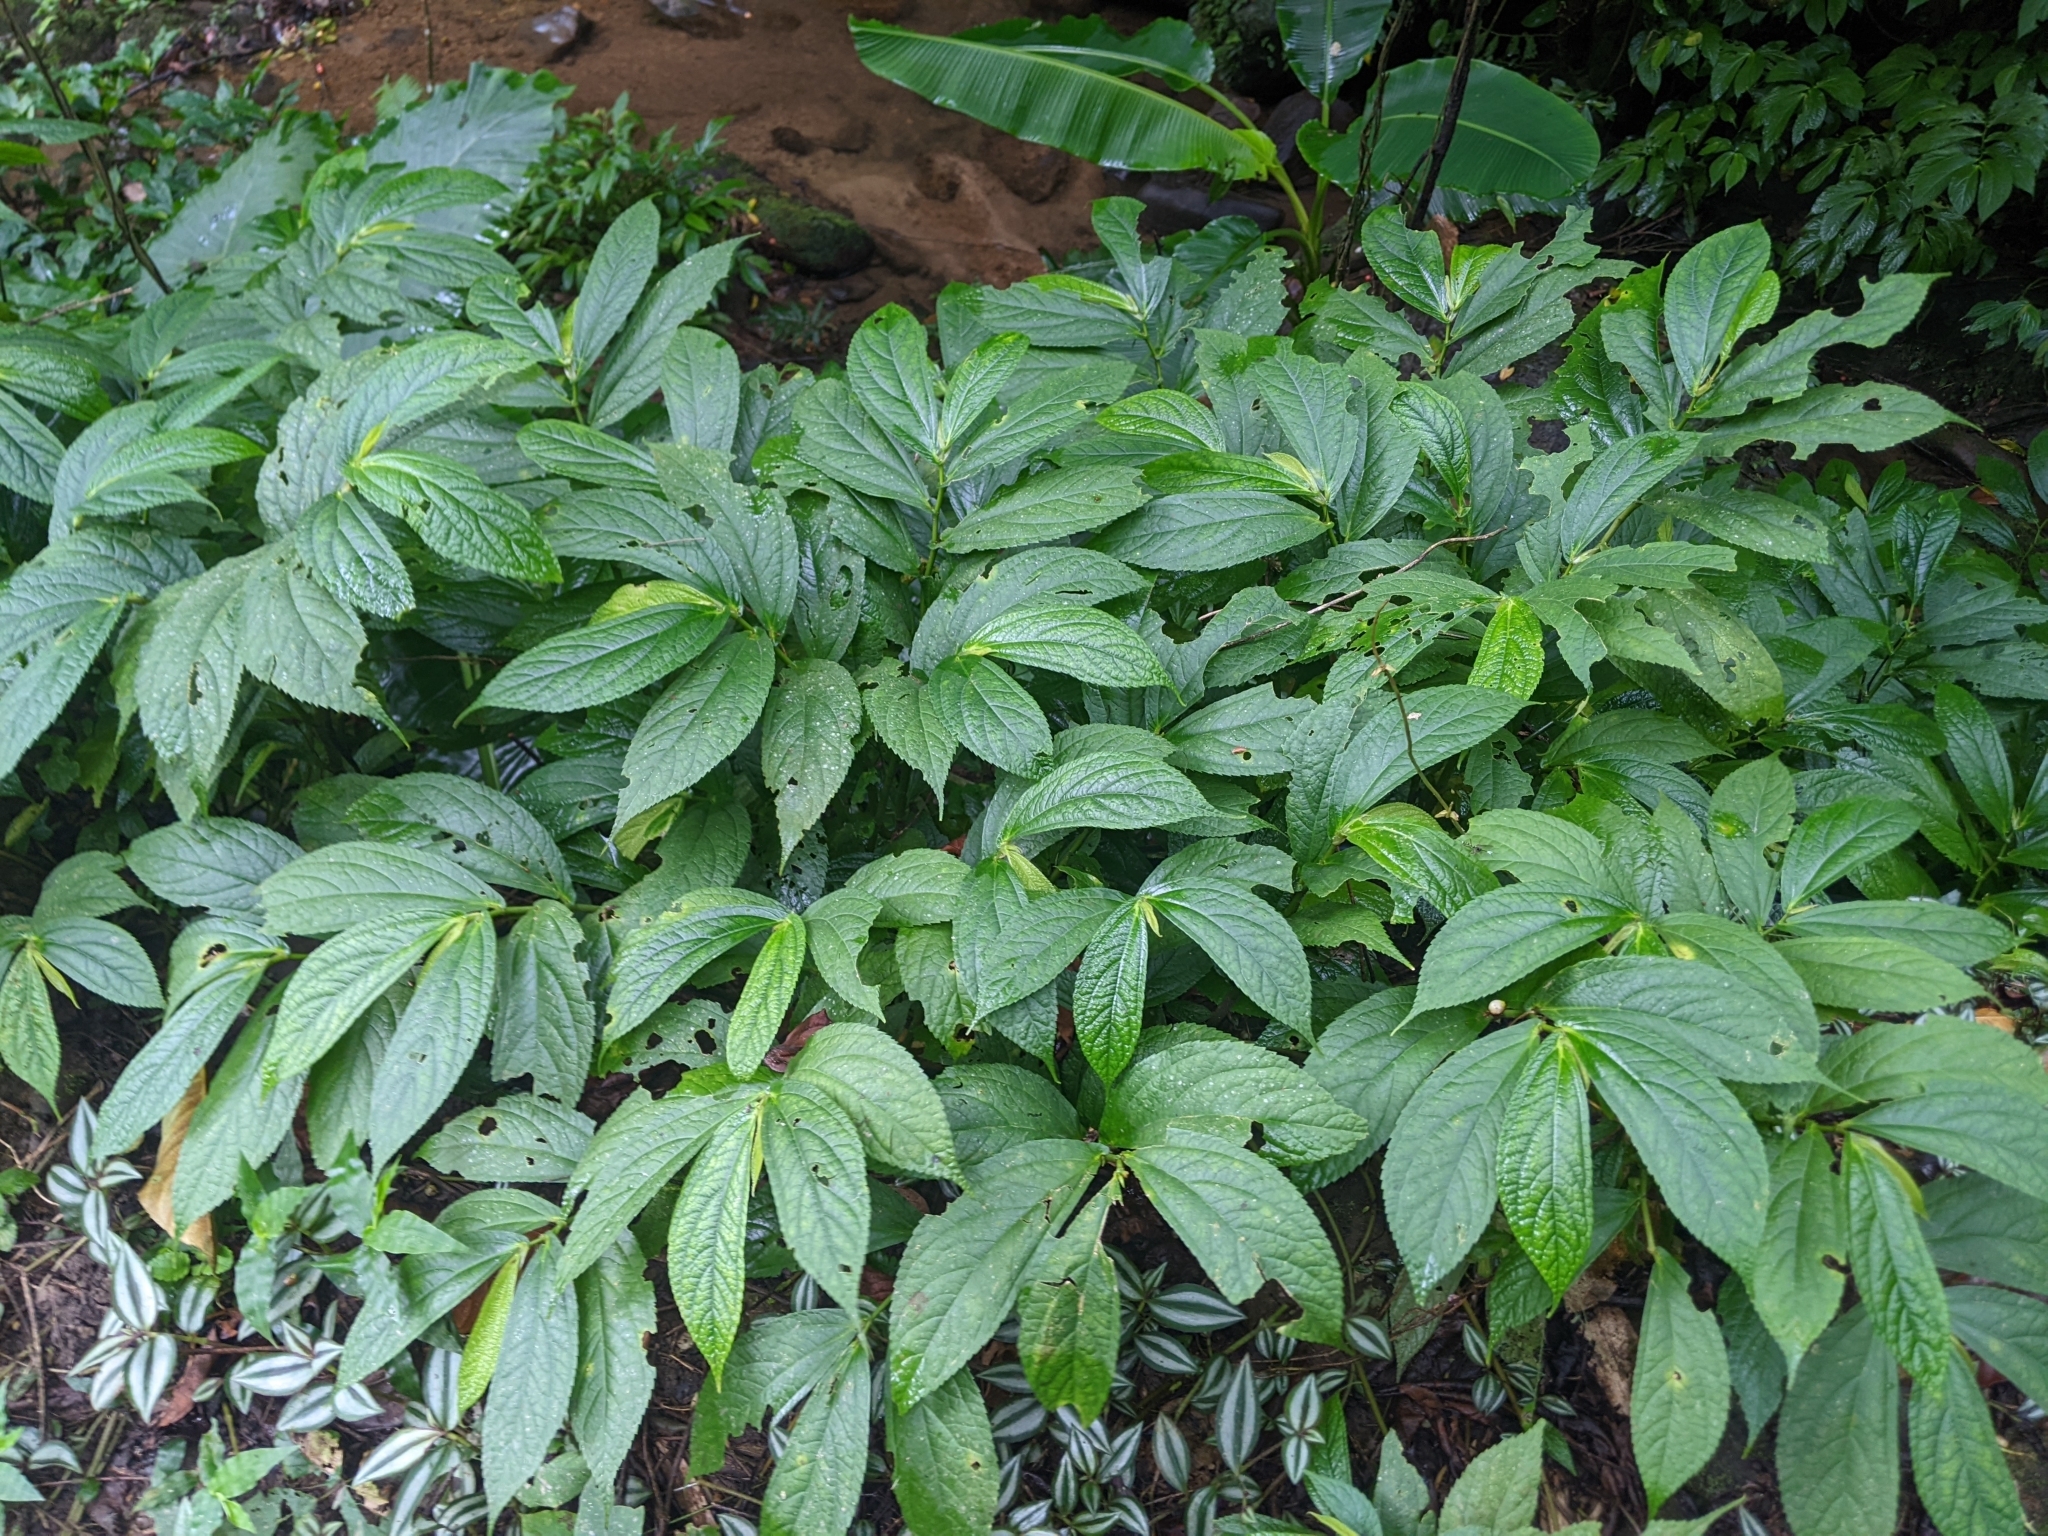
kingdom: Plantae
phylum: Tracheophyta
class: Magnoliopsida
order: Rosales
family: Urticaceae
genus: Elatostema
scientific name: Elatostema platyphyllum
